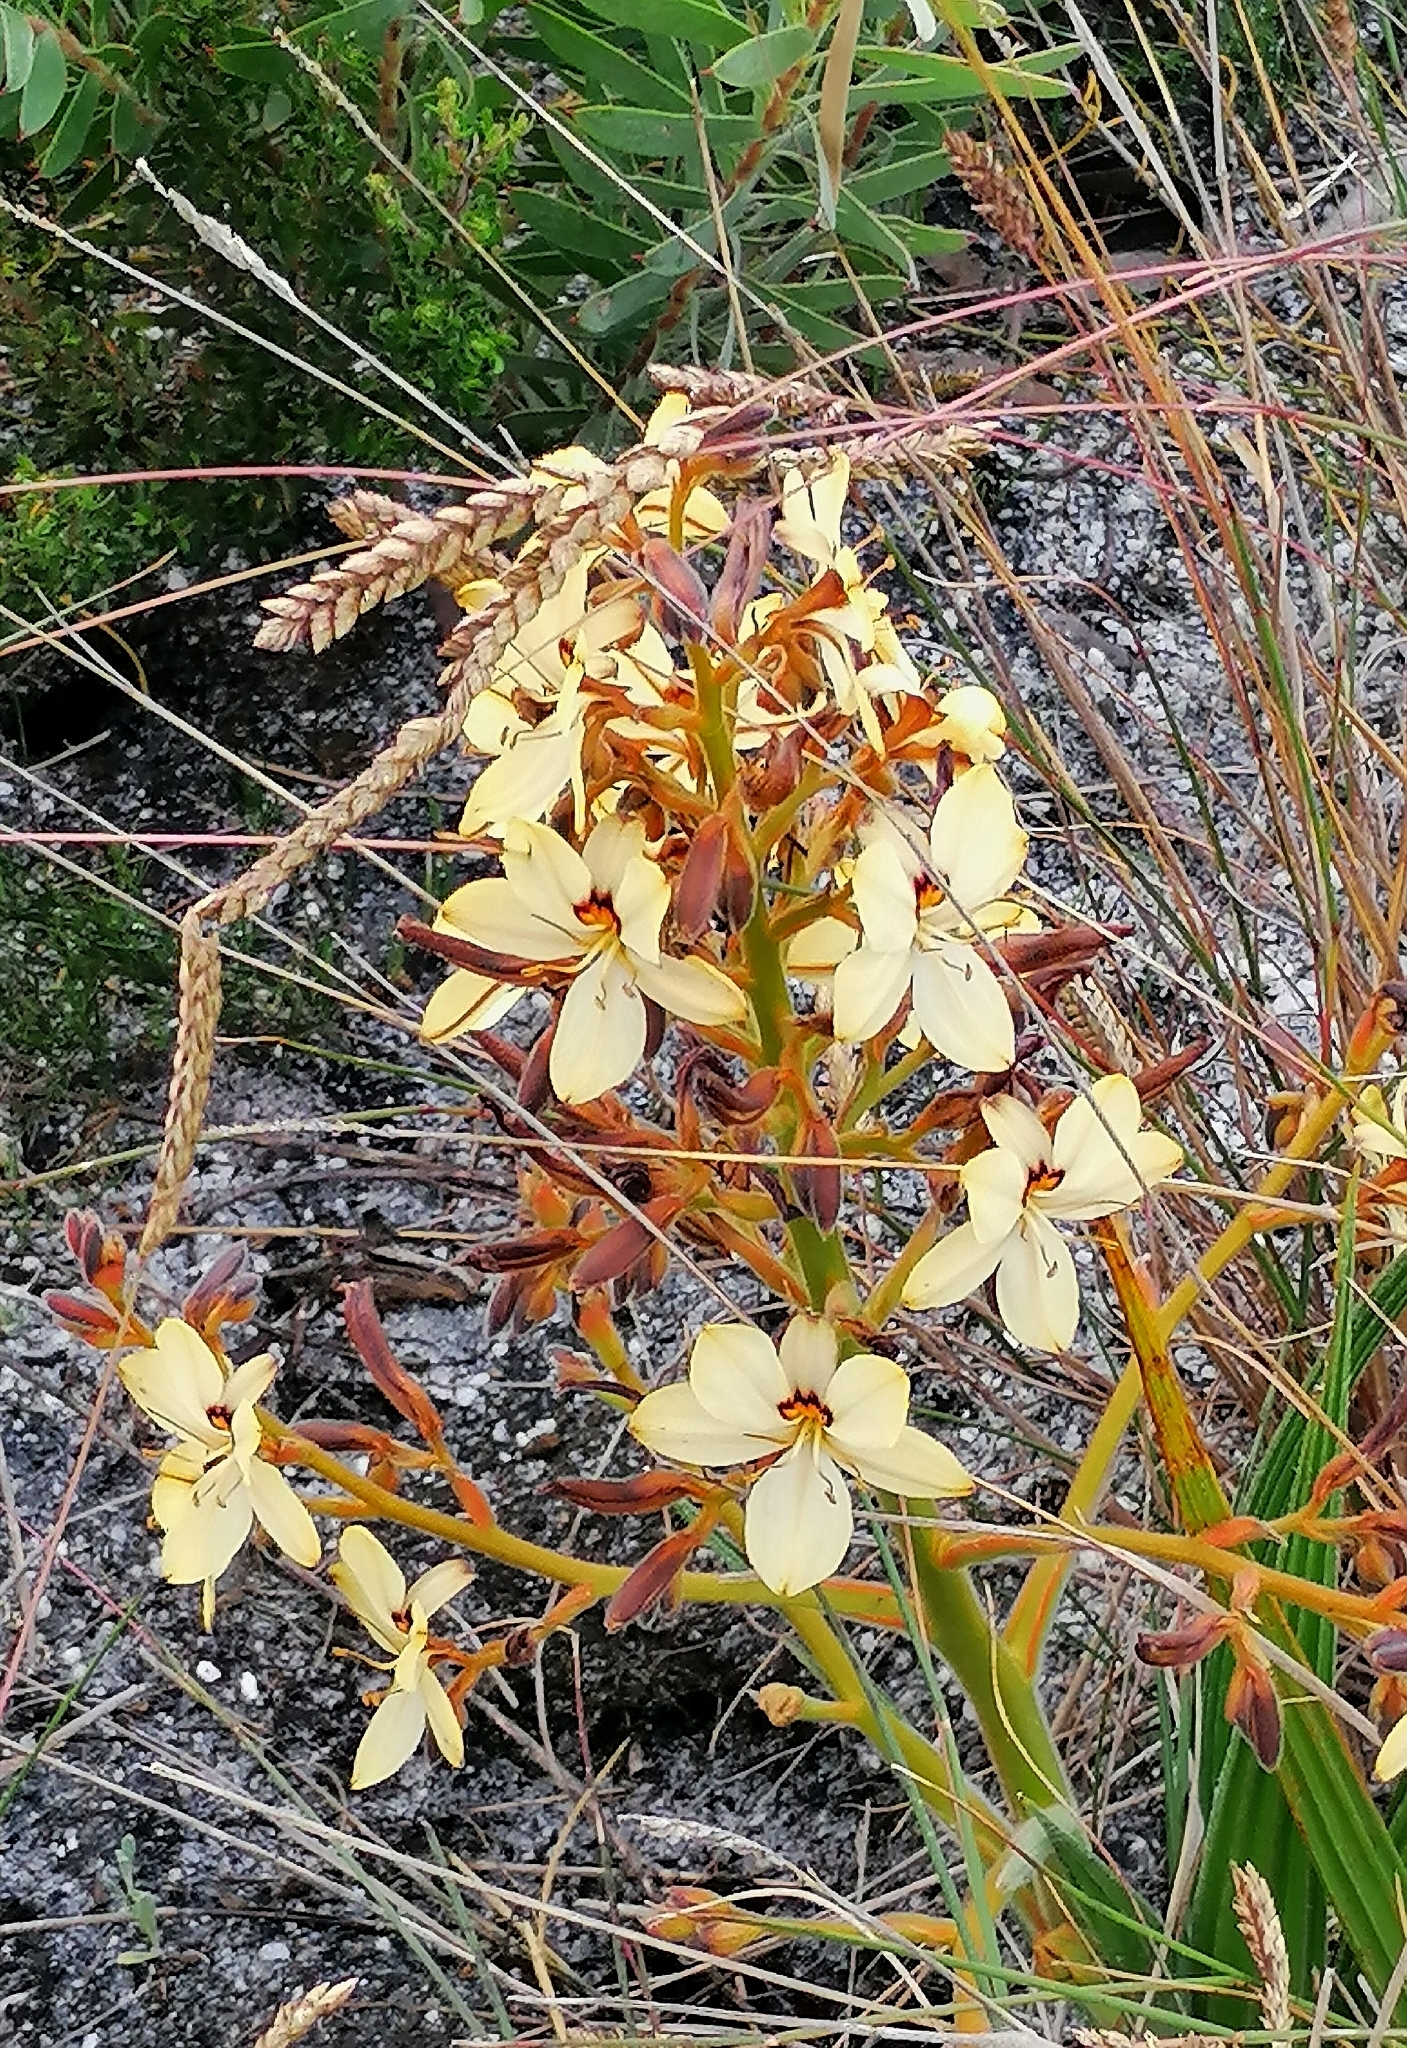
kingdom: Plantae
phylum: Tracheophyta
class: Liliopsida
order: Commelinales
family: Haemodoraceae
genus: Wachendorfia
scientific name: Wachendorfia paniculata
